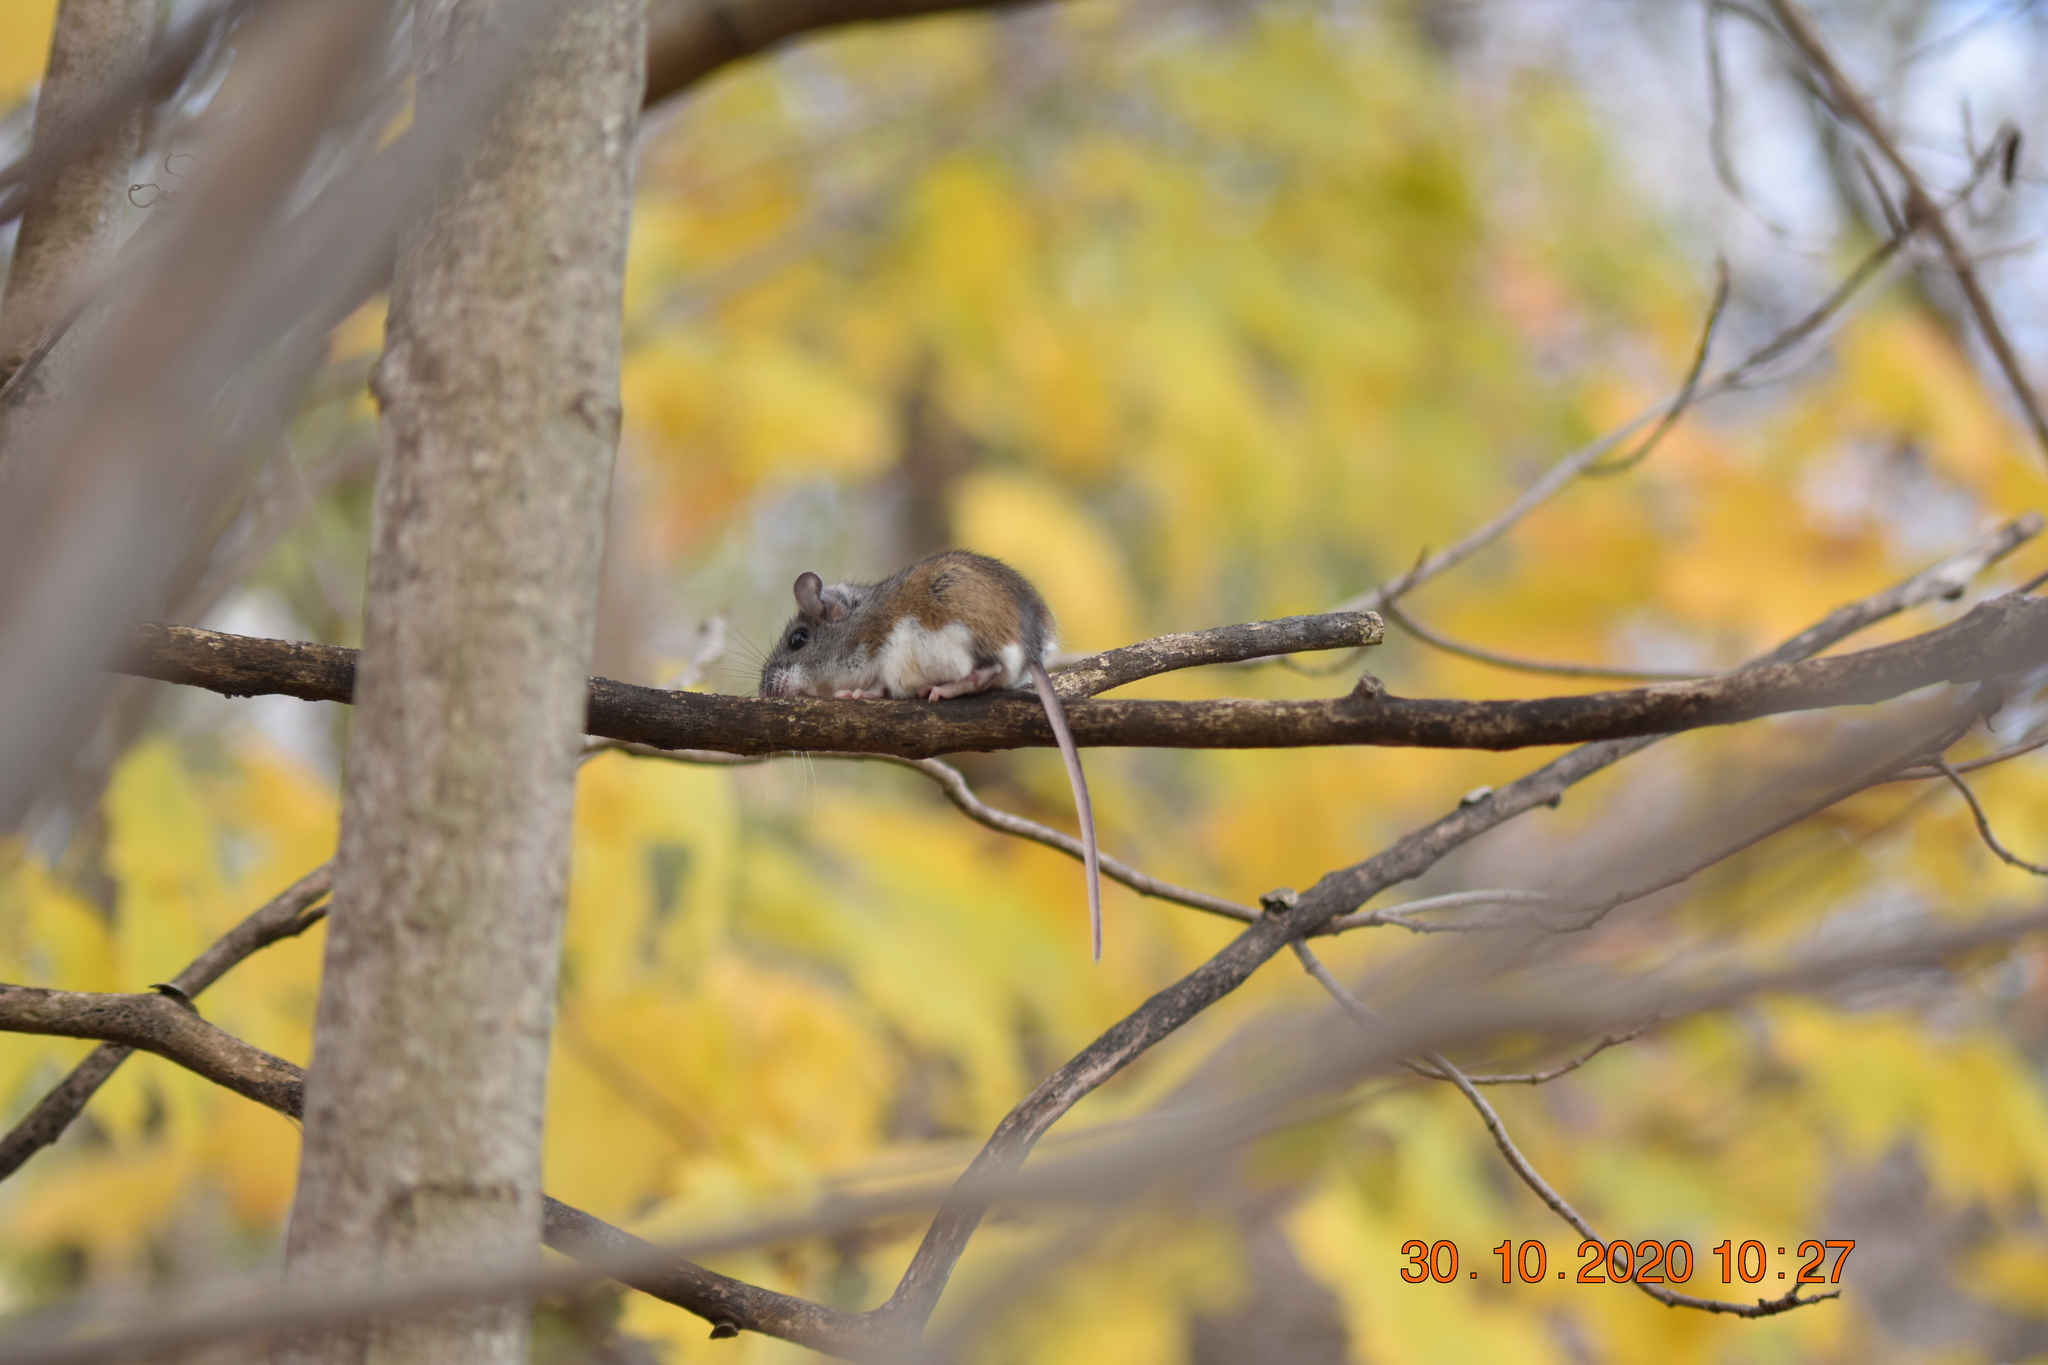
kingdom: Animalia
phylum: Chordata
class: Mammalia
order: Rodentia
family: Cricetidae
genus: Peromyscus
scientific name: Peromyscus
